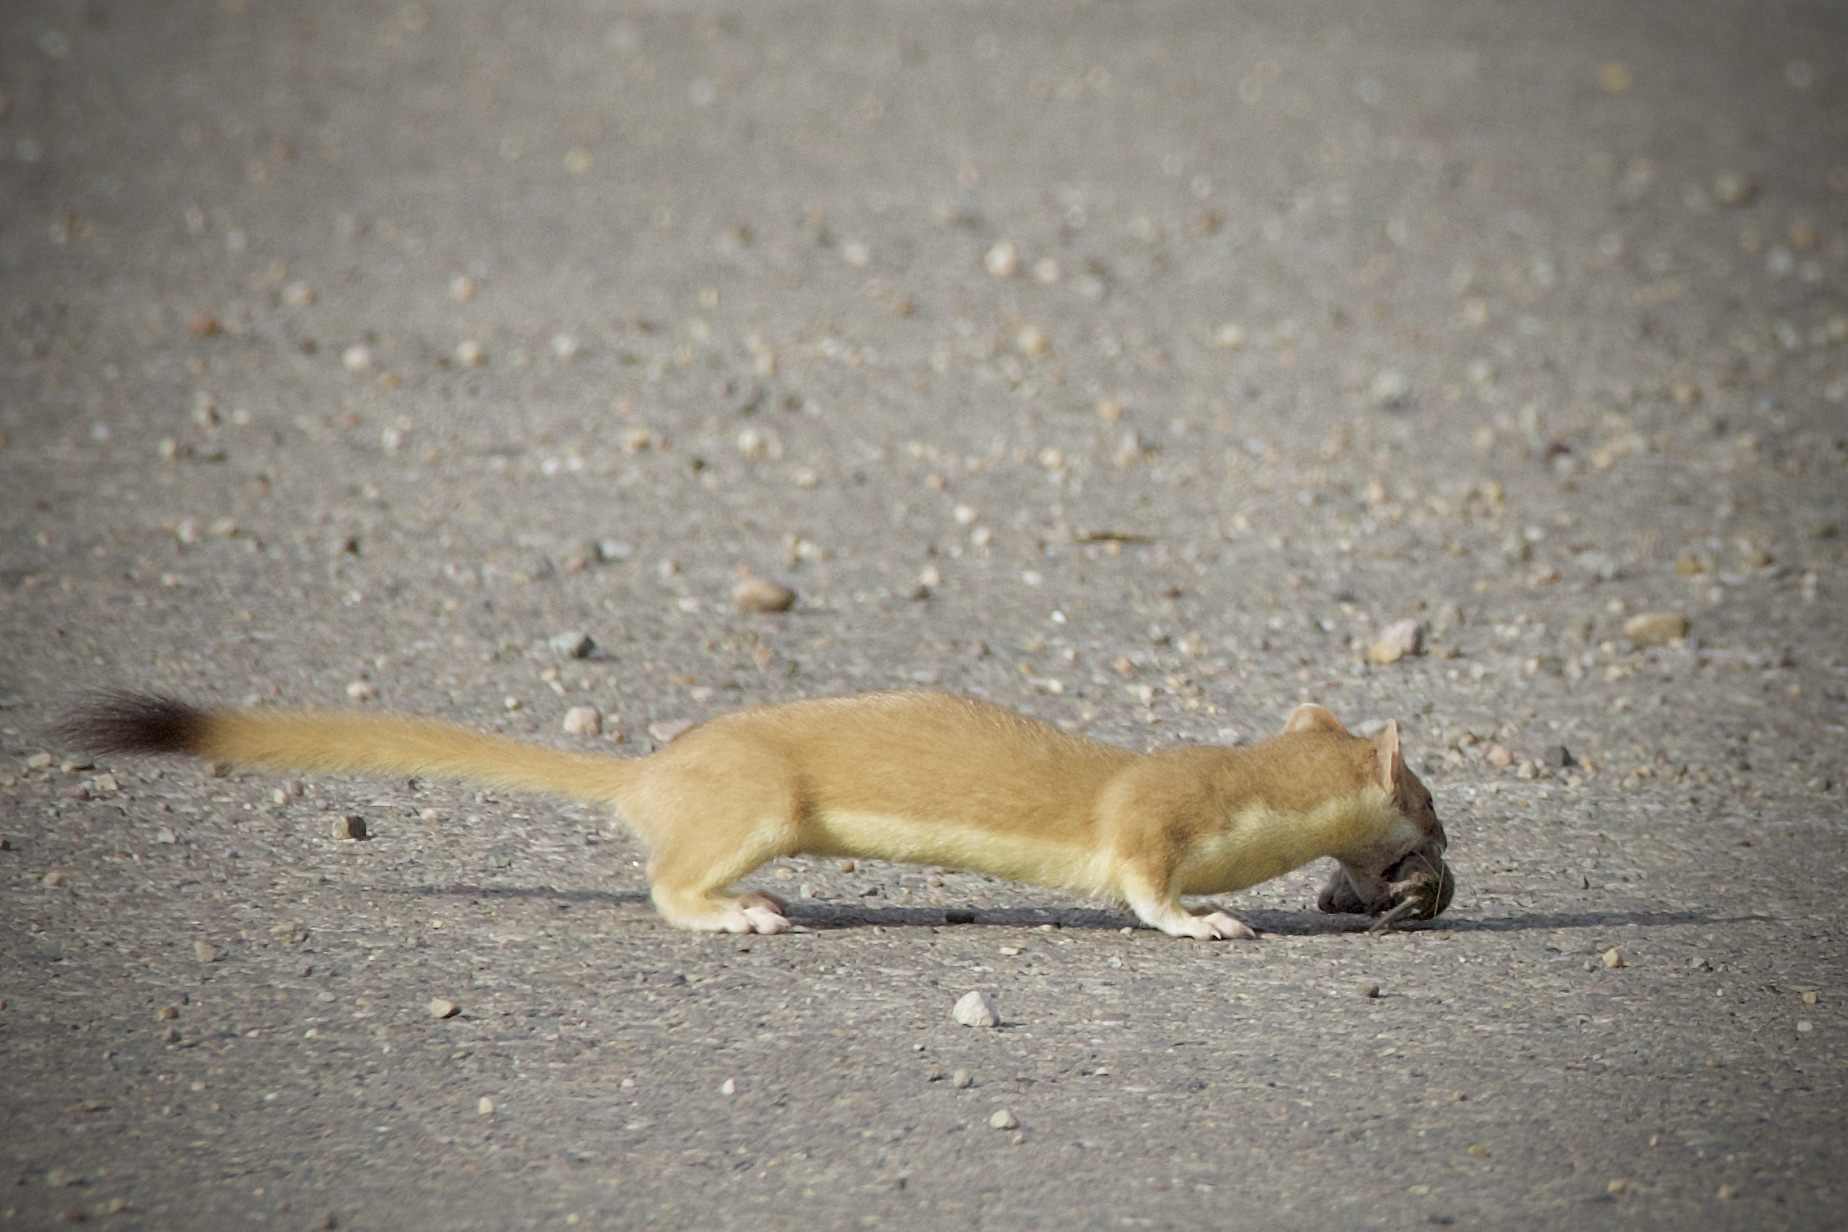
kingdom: Animalia
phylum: Chordata
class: Mammalia
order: Carnivora
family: Mustelidae
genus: Mustela
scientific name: Mustela
